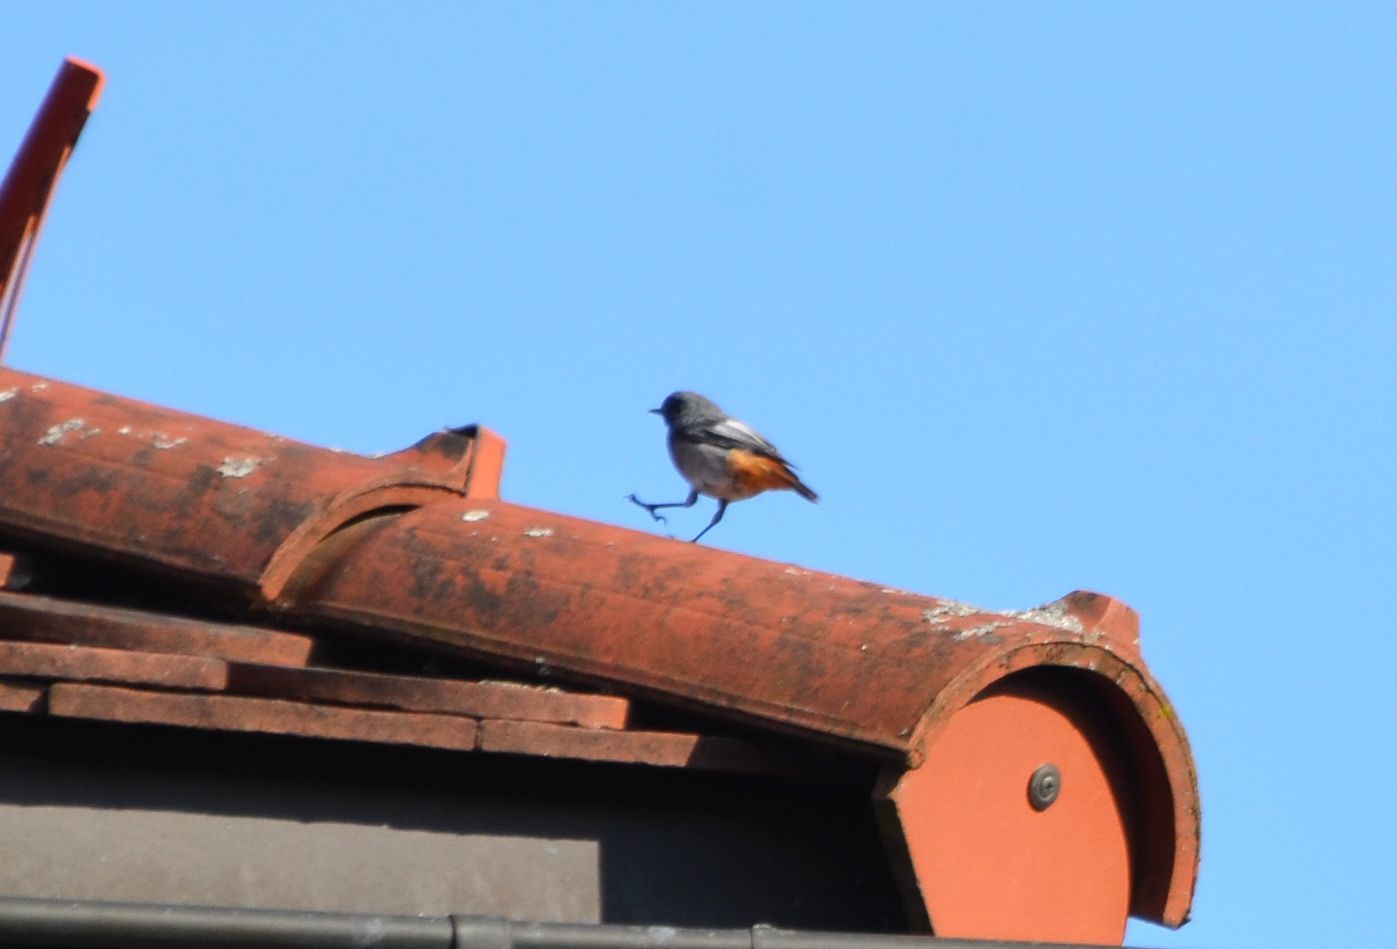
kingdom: Animalia
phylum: Chordata
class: Aves
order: Passeriformes
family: Muscicapidae
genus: Phoenicurus
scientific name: Phoenicurus ochruros
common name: Black redstart
